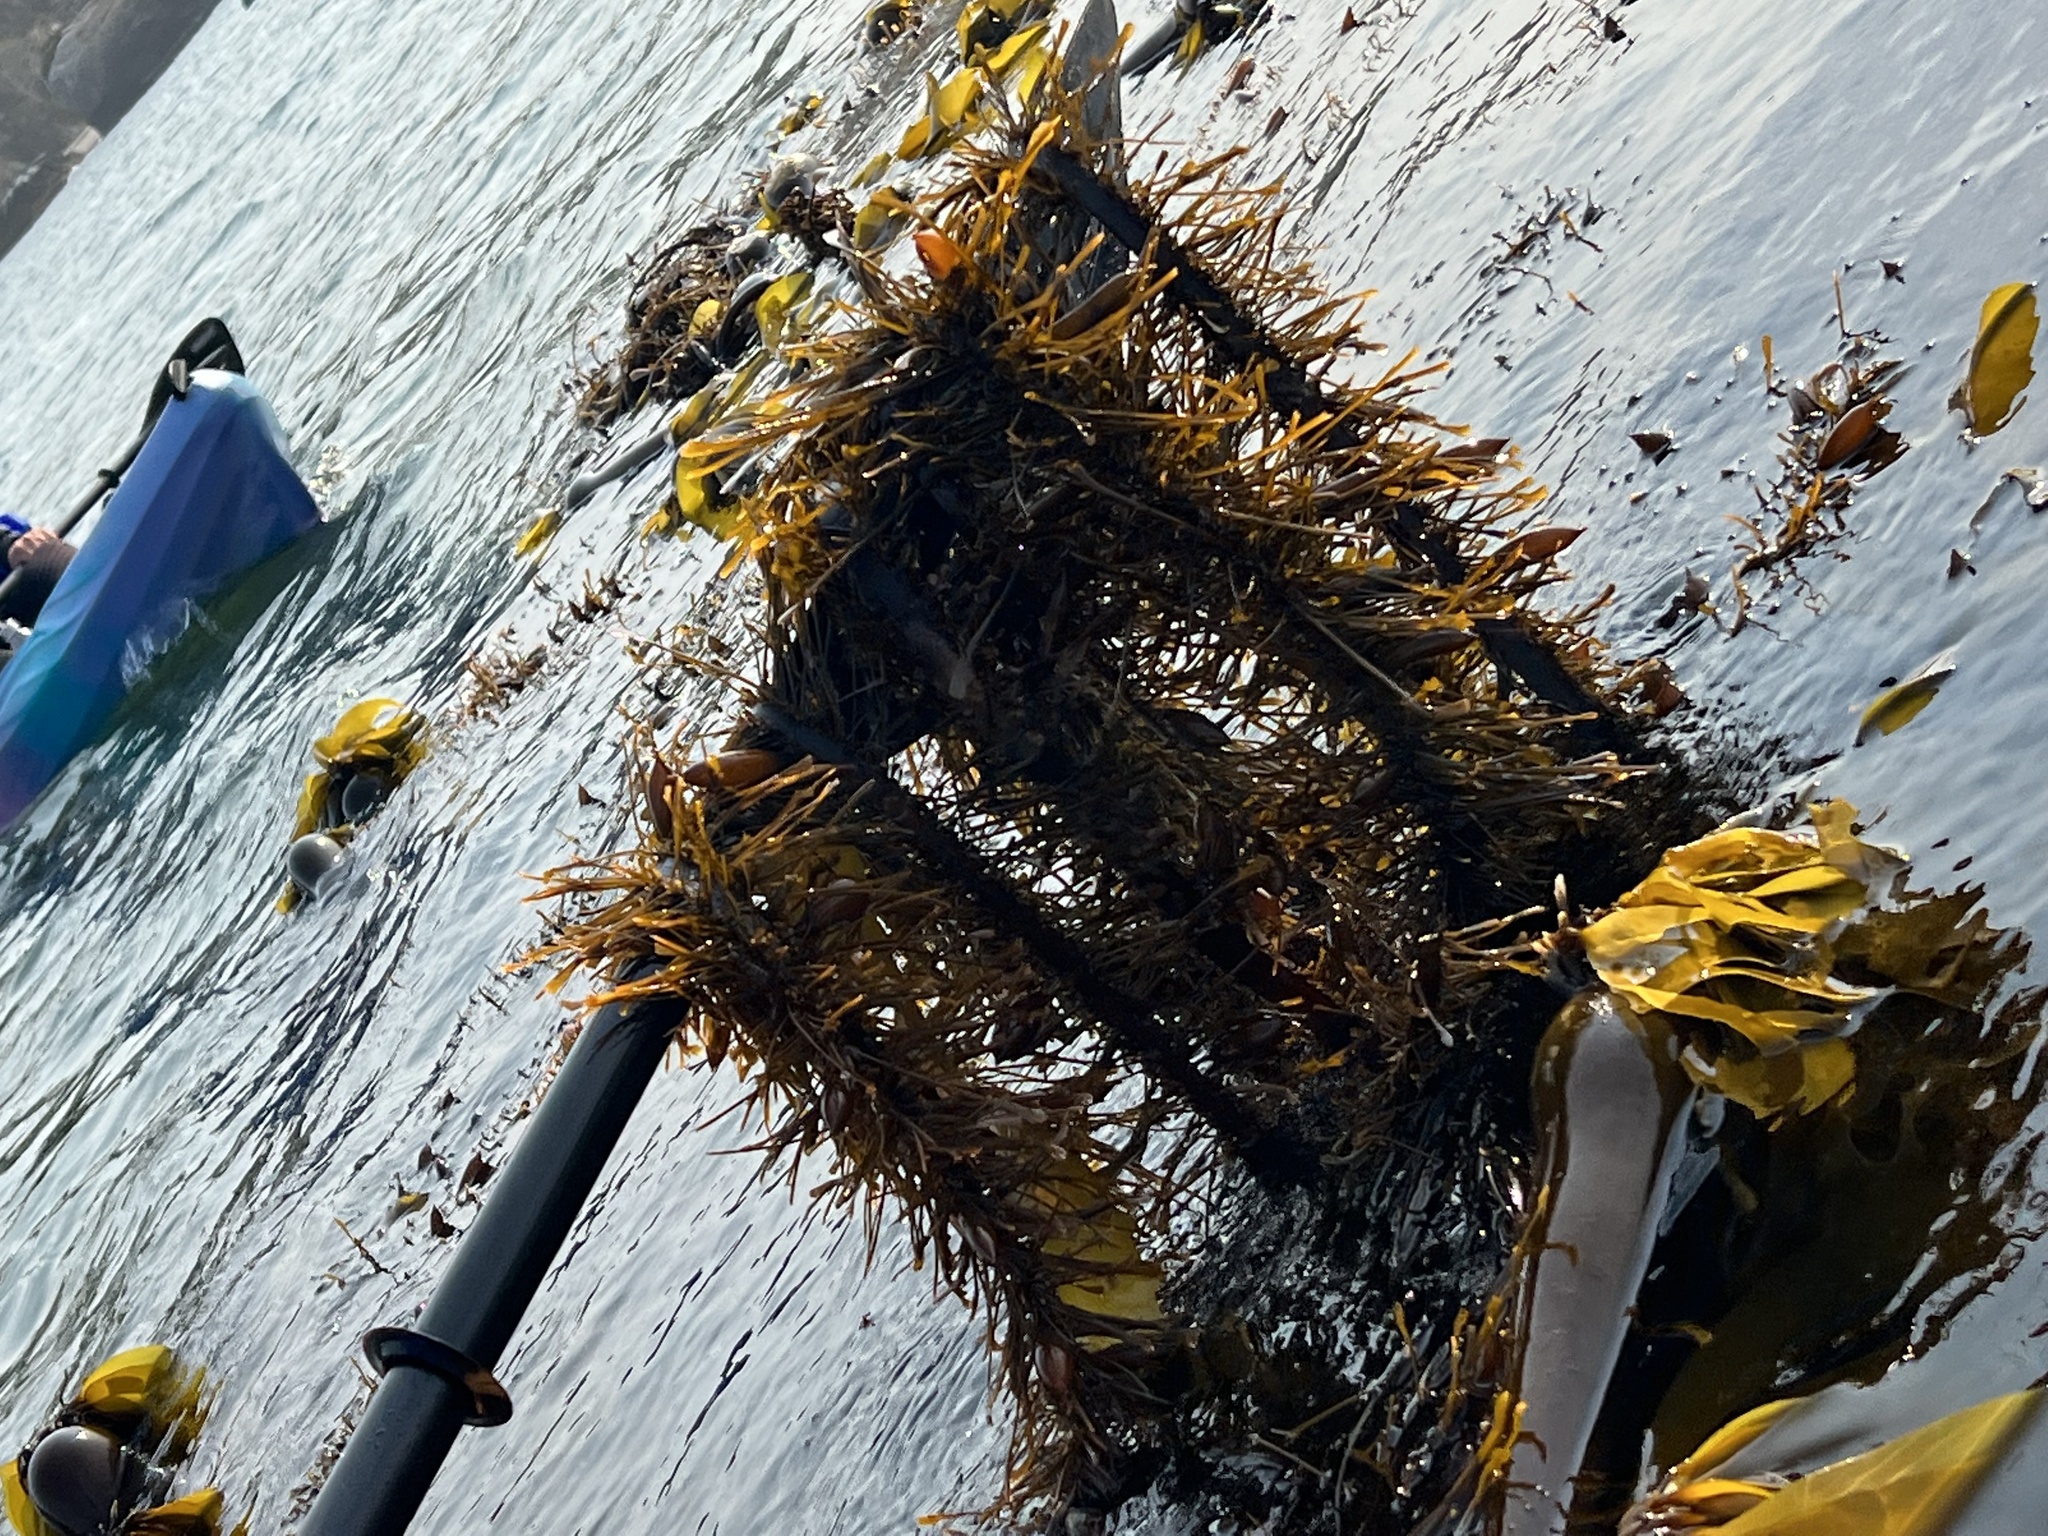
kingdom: Chromista
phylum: Ochrophyta
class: Phaeophyceae
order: Laminariales
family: Lessoniaceae
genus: Egregia
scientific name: Egregia menziesii
